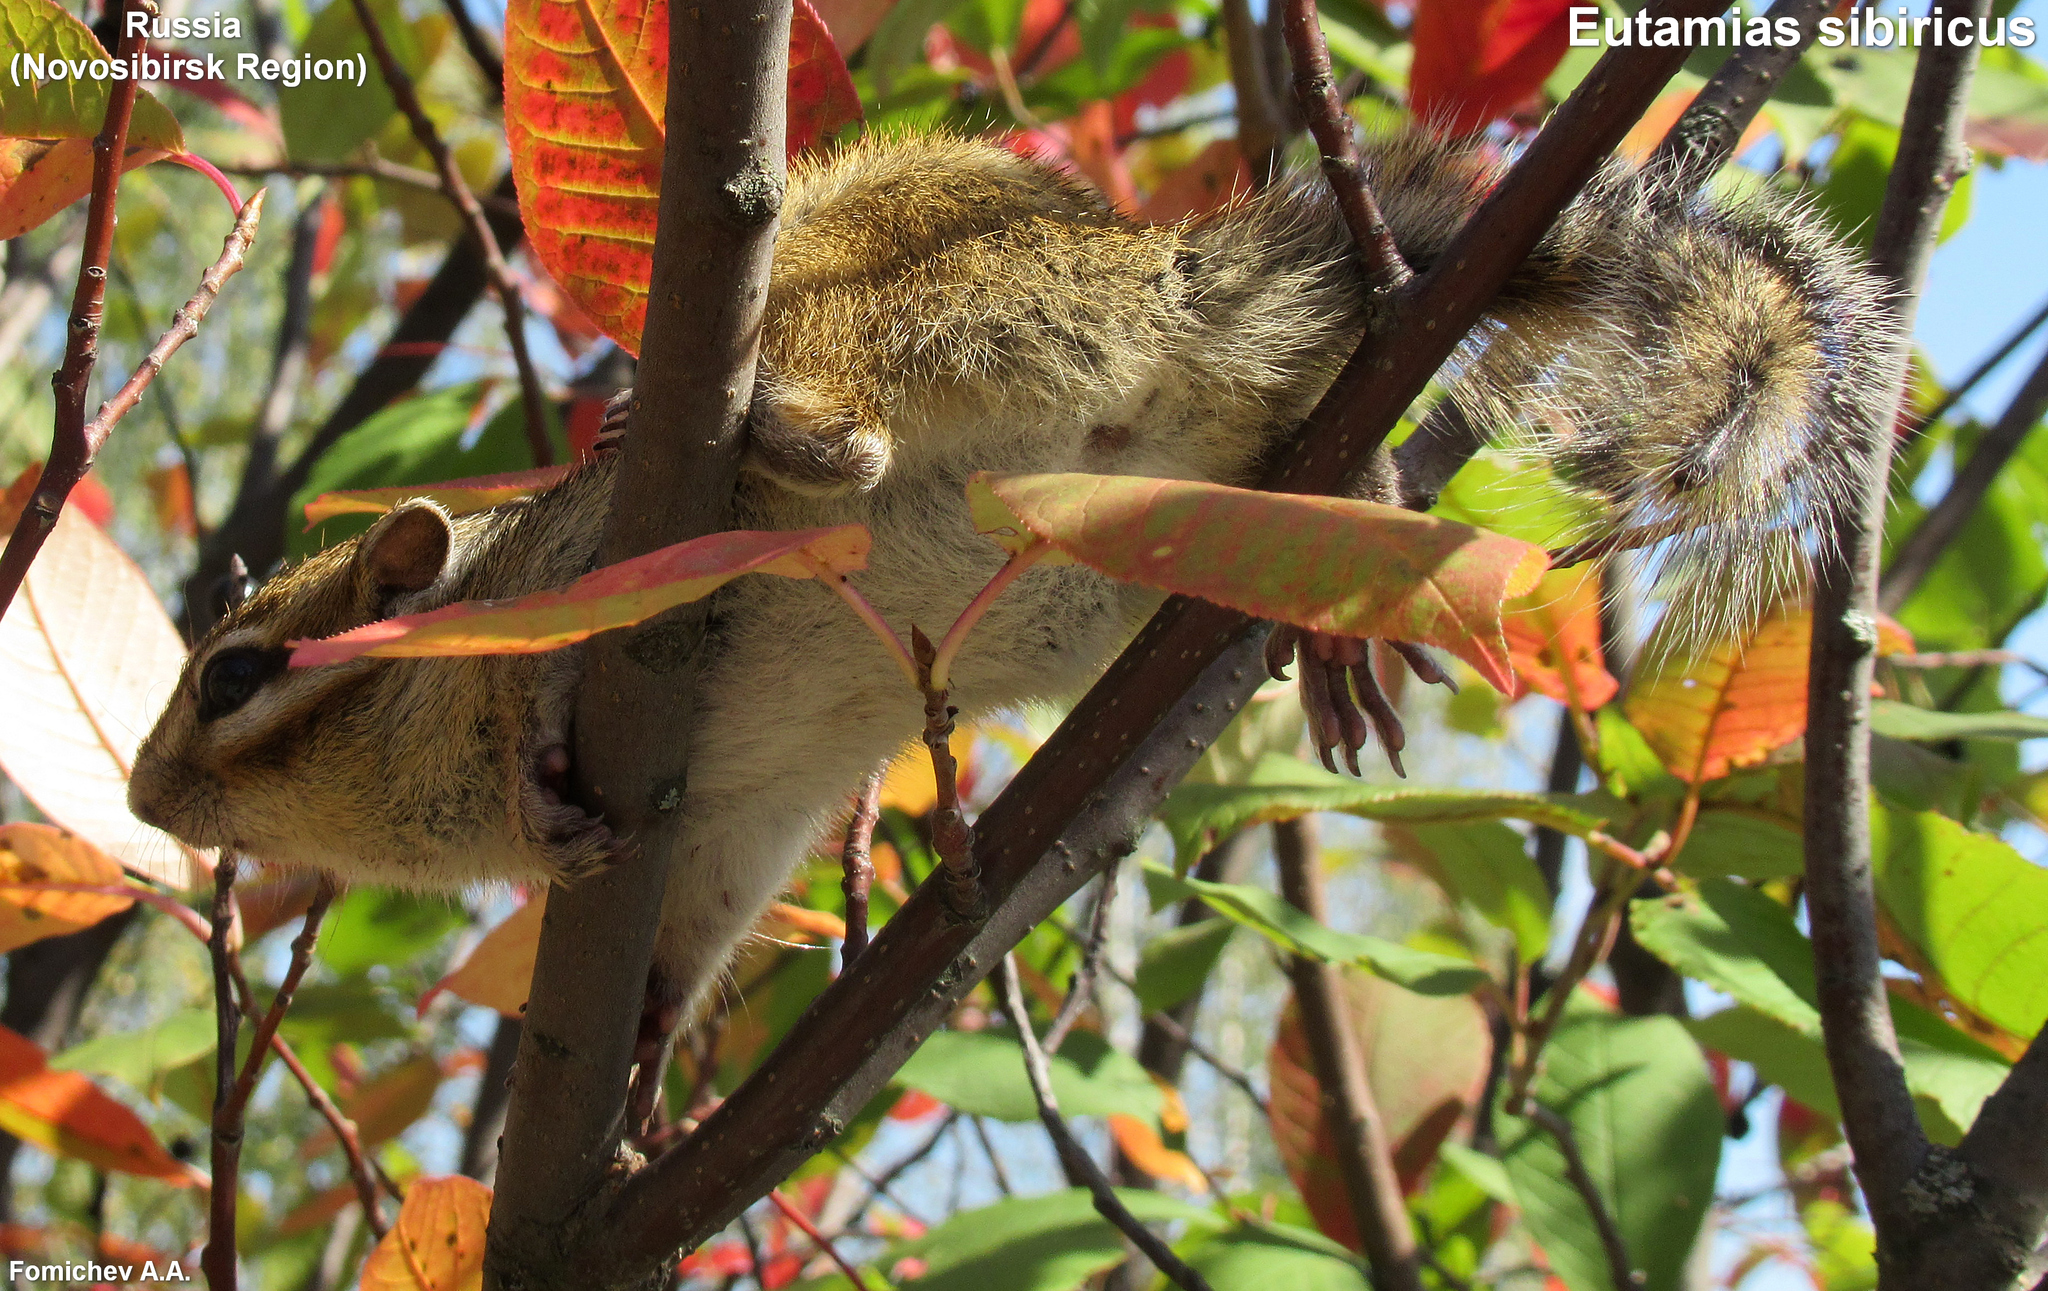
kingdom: Animalia
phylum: Chordata
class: Mammalia
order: Rodentia
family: Sciuridae
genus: Tamias
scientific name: Tamias sibiricus
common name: Siberian chipmunk
